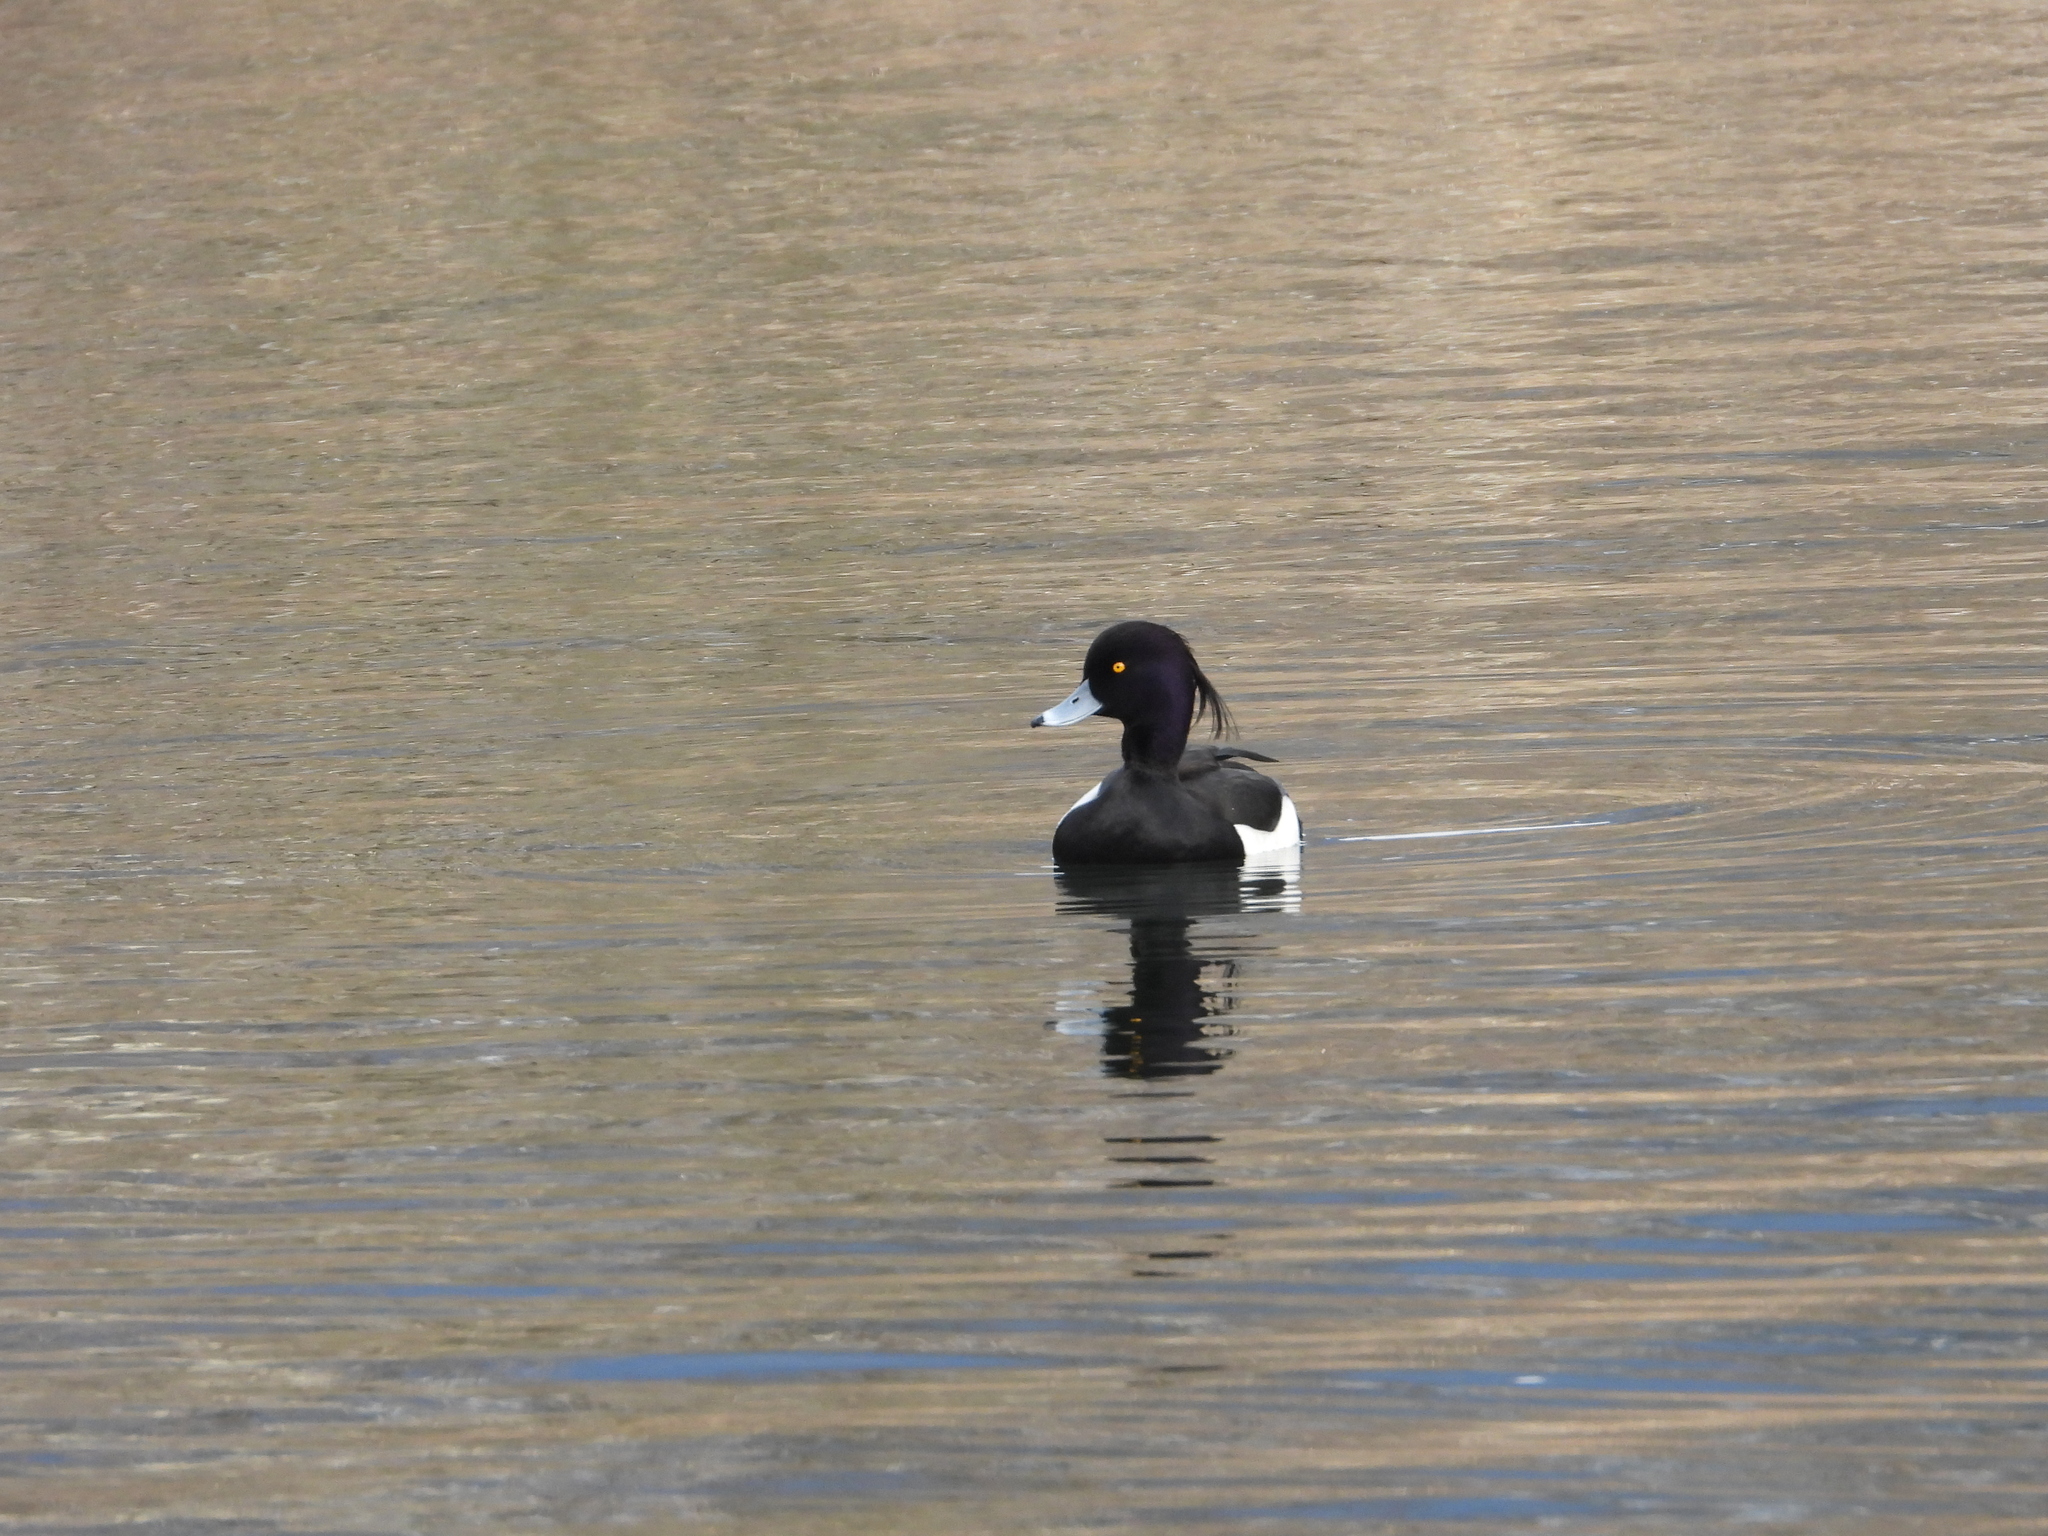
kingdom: Animalia
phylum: Chordata
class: Aves
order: Anseriformes
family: Anatidae
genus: Aythya
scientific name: Aythya fuligula
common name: Tufted duck
